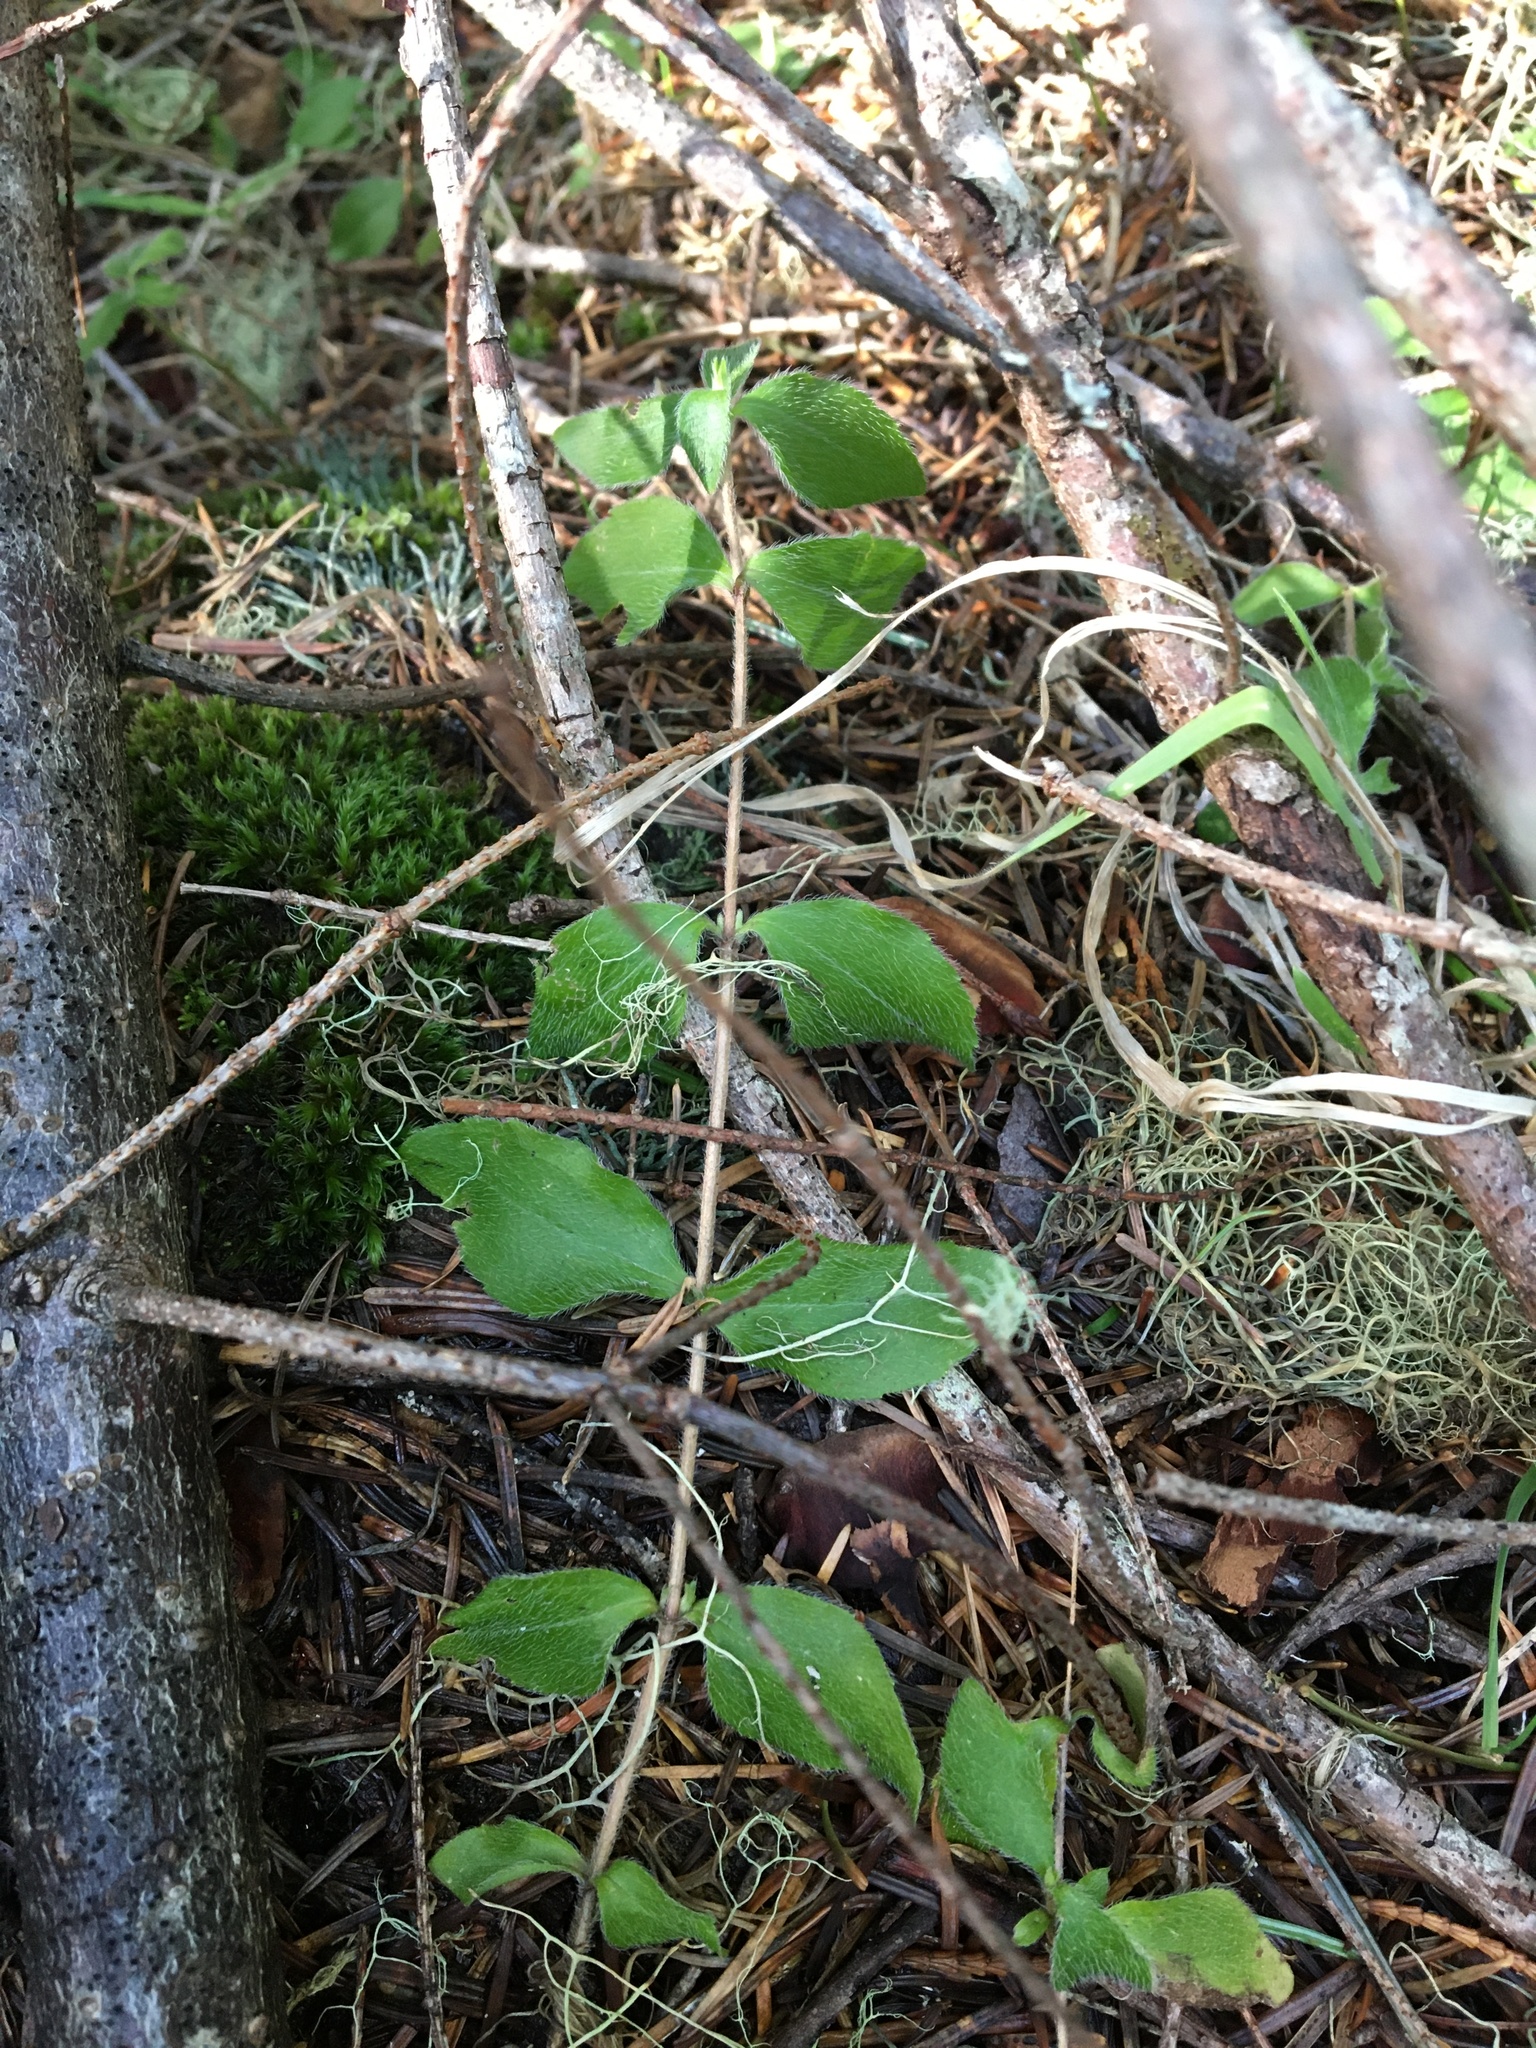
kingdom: Plantae
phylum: Tracheophyta
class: Magnoliopsida
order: Cornales
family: Hydrangeaceae
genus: Whipplea
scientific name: Whipplea modesta
